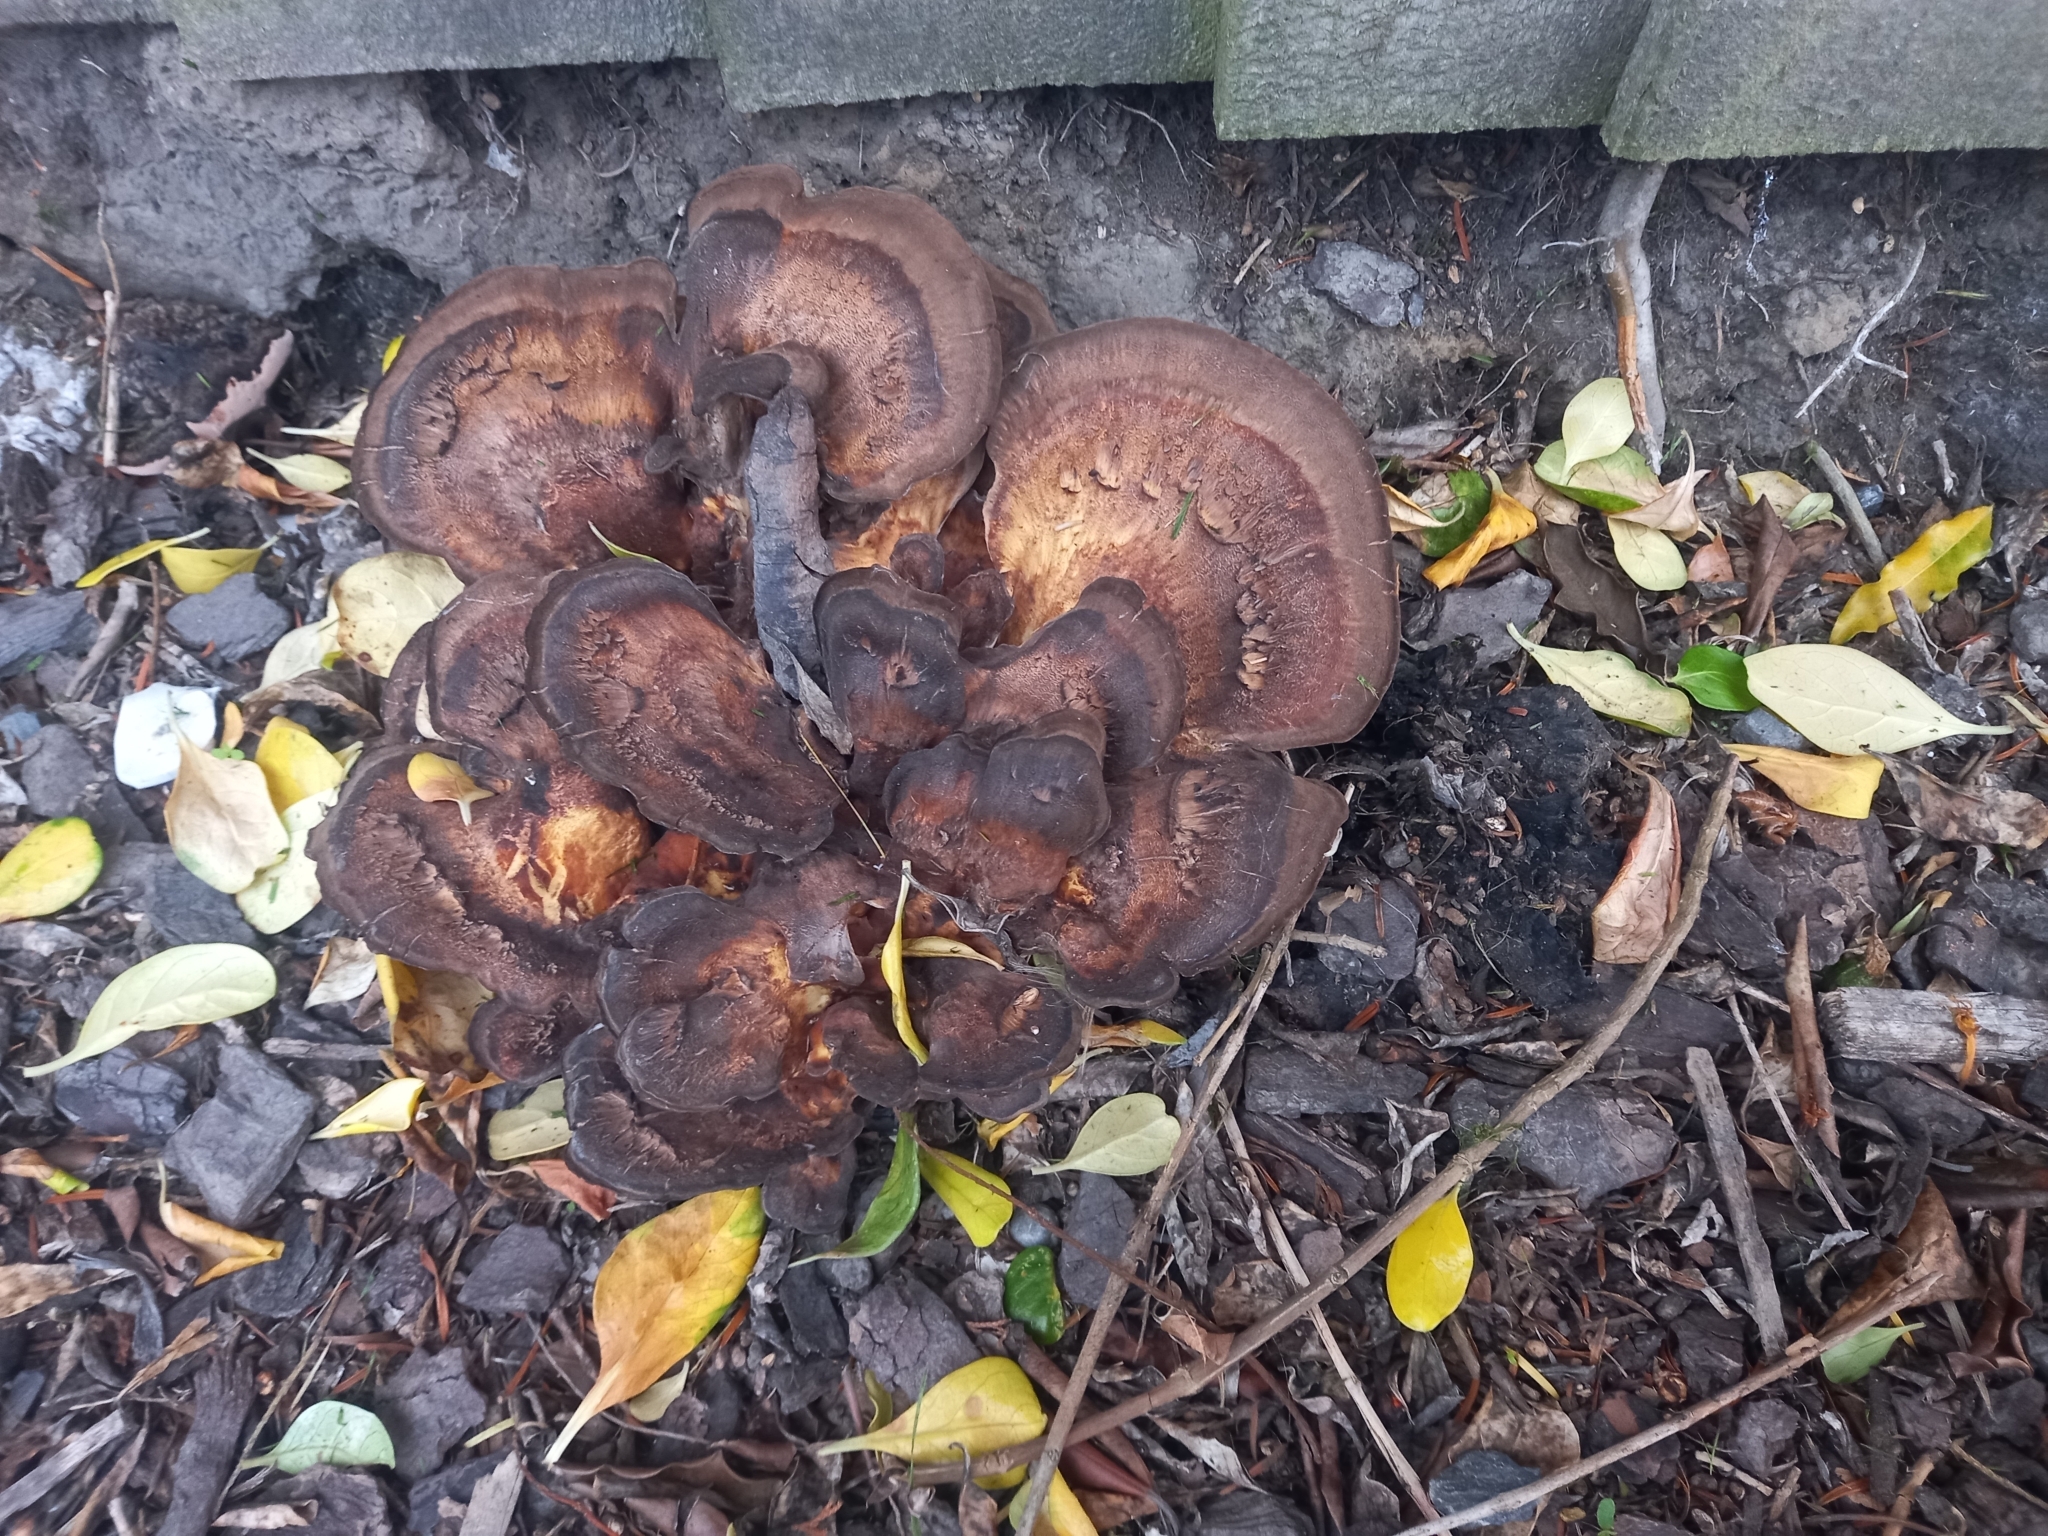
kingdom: Fungi
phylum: Basidiomycota
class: Agaricomycetes
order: Polyporales
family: Meripilaceae
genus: Meripilus
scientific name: Meripilus giganteus
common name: Giant polypore
